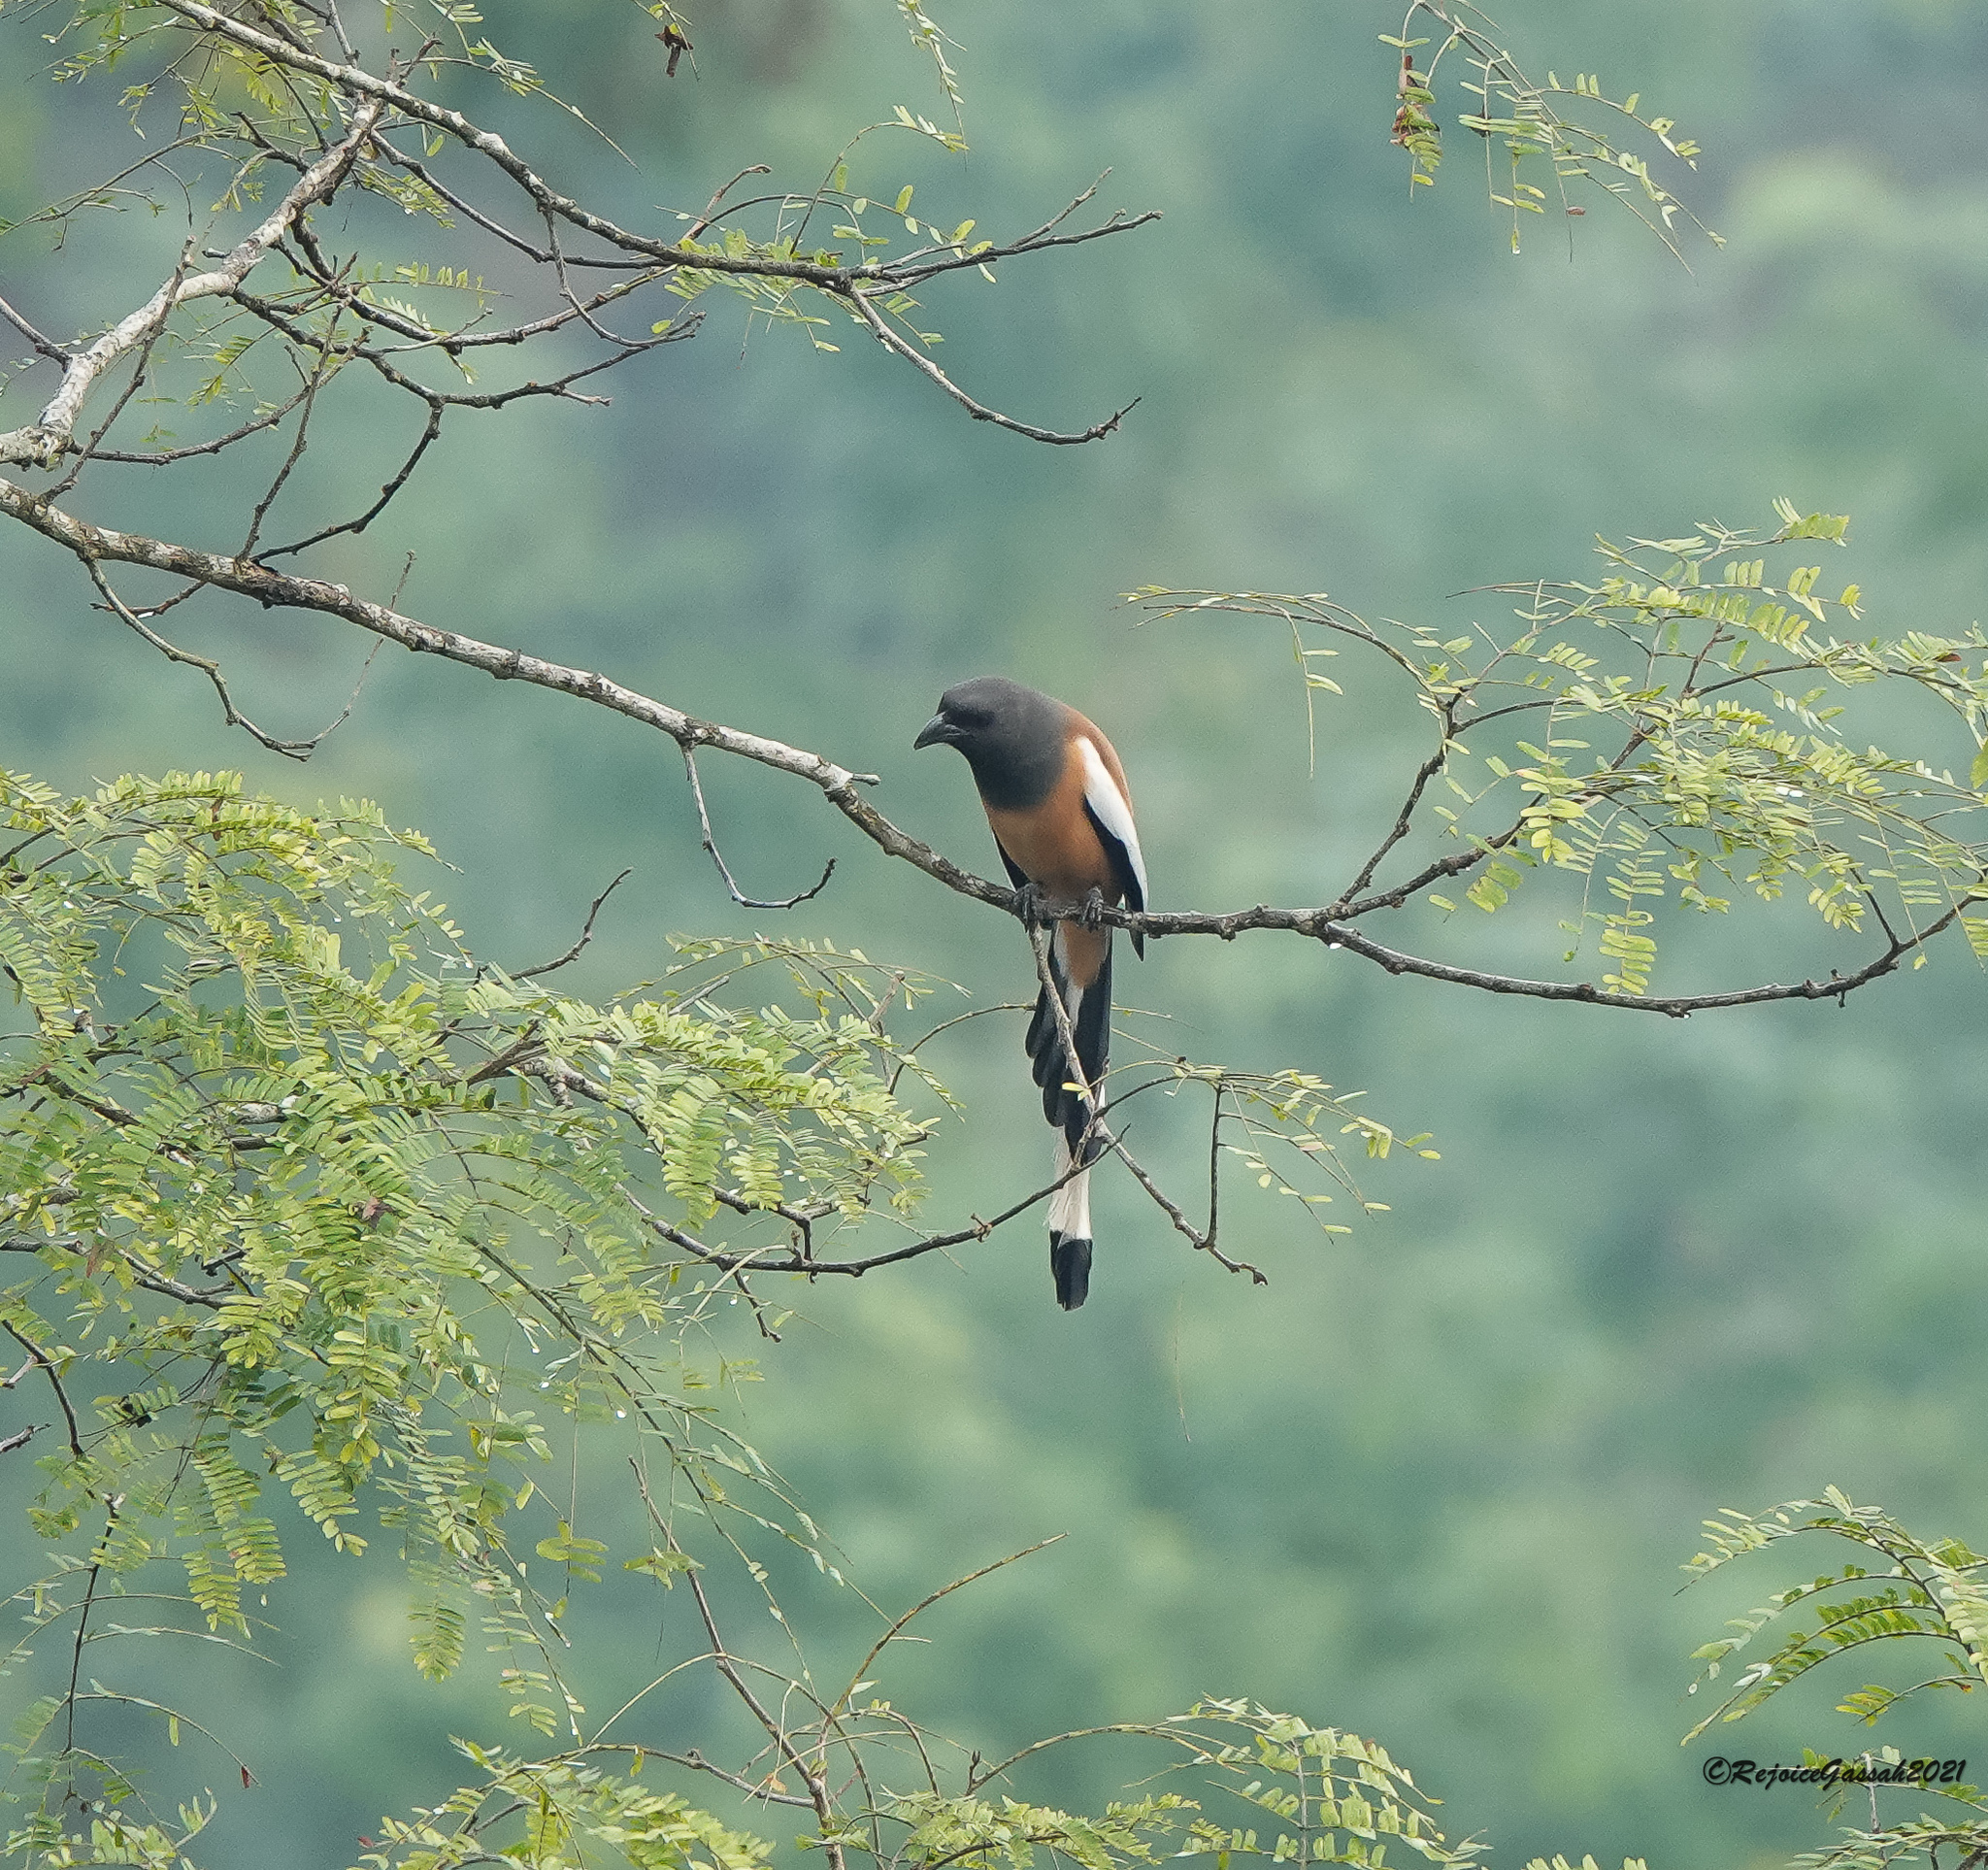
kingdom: Animalia
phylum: Chordata
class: Aves
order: Passeriformes
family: Corvidae
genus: Dendrocitta
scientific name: Dendrocitta vagabunda
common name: Rufous treepie
